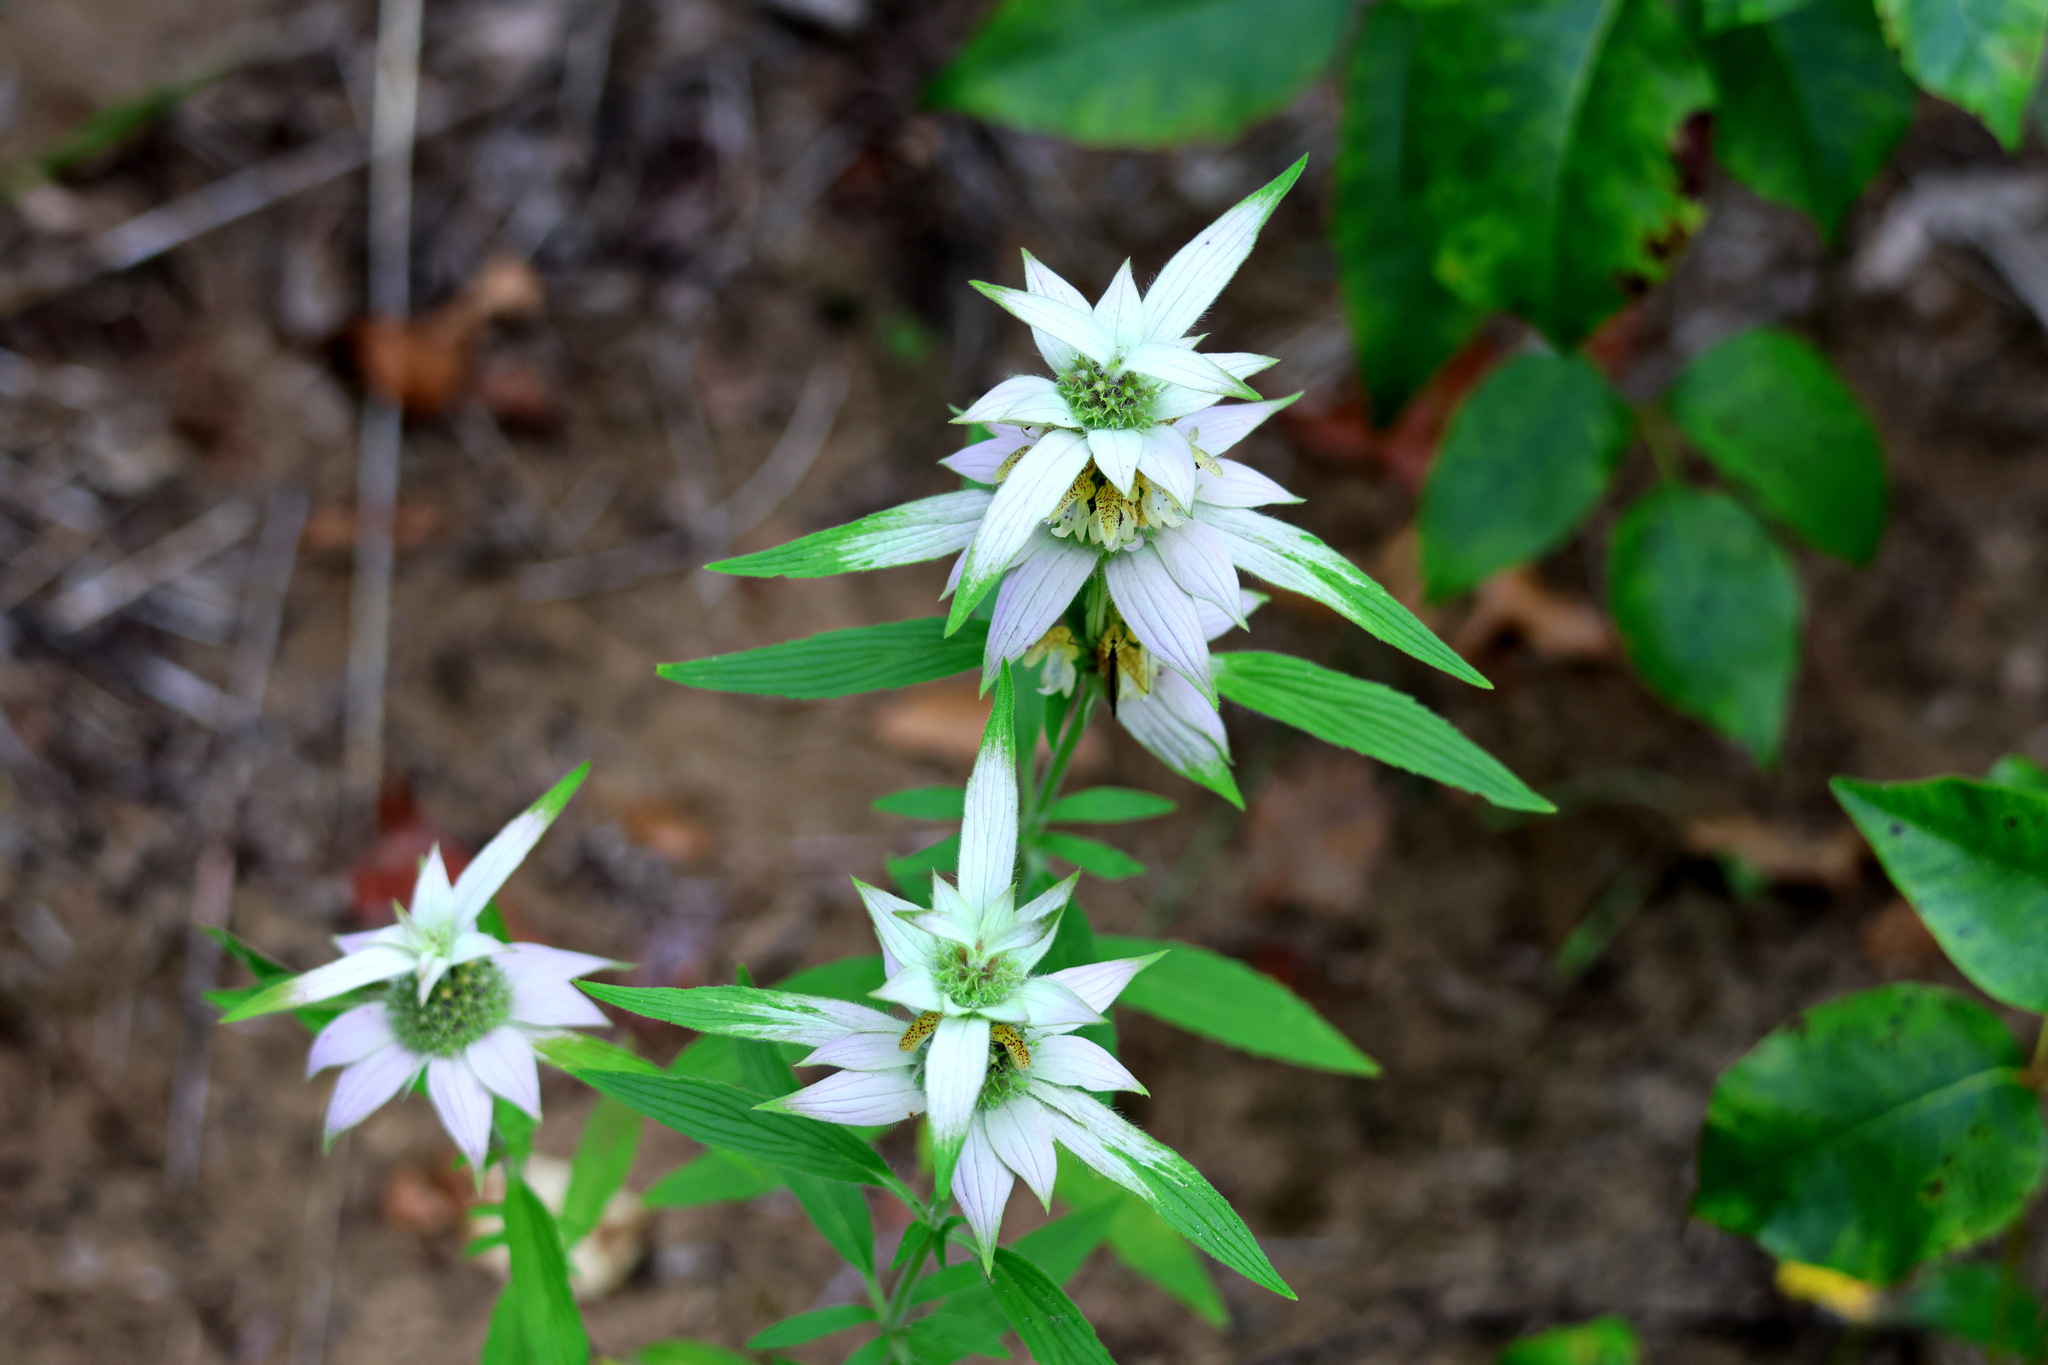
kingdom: Plantae
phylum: Tracheophyta
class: Magnoliopsida
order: Lamiales
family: Lamiaceae
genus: Monarda
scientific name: Monarda punctata
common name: Dotted monarda
